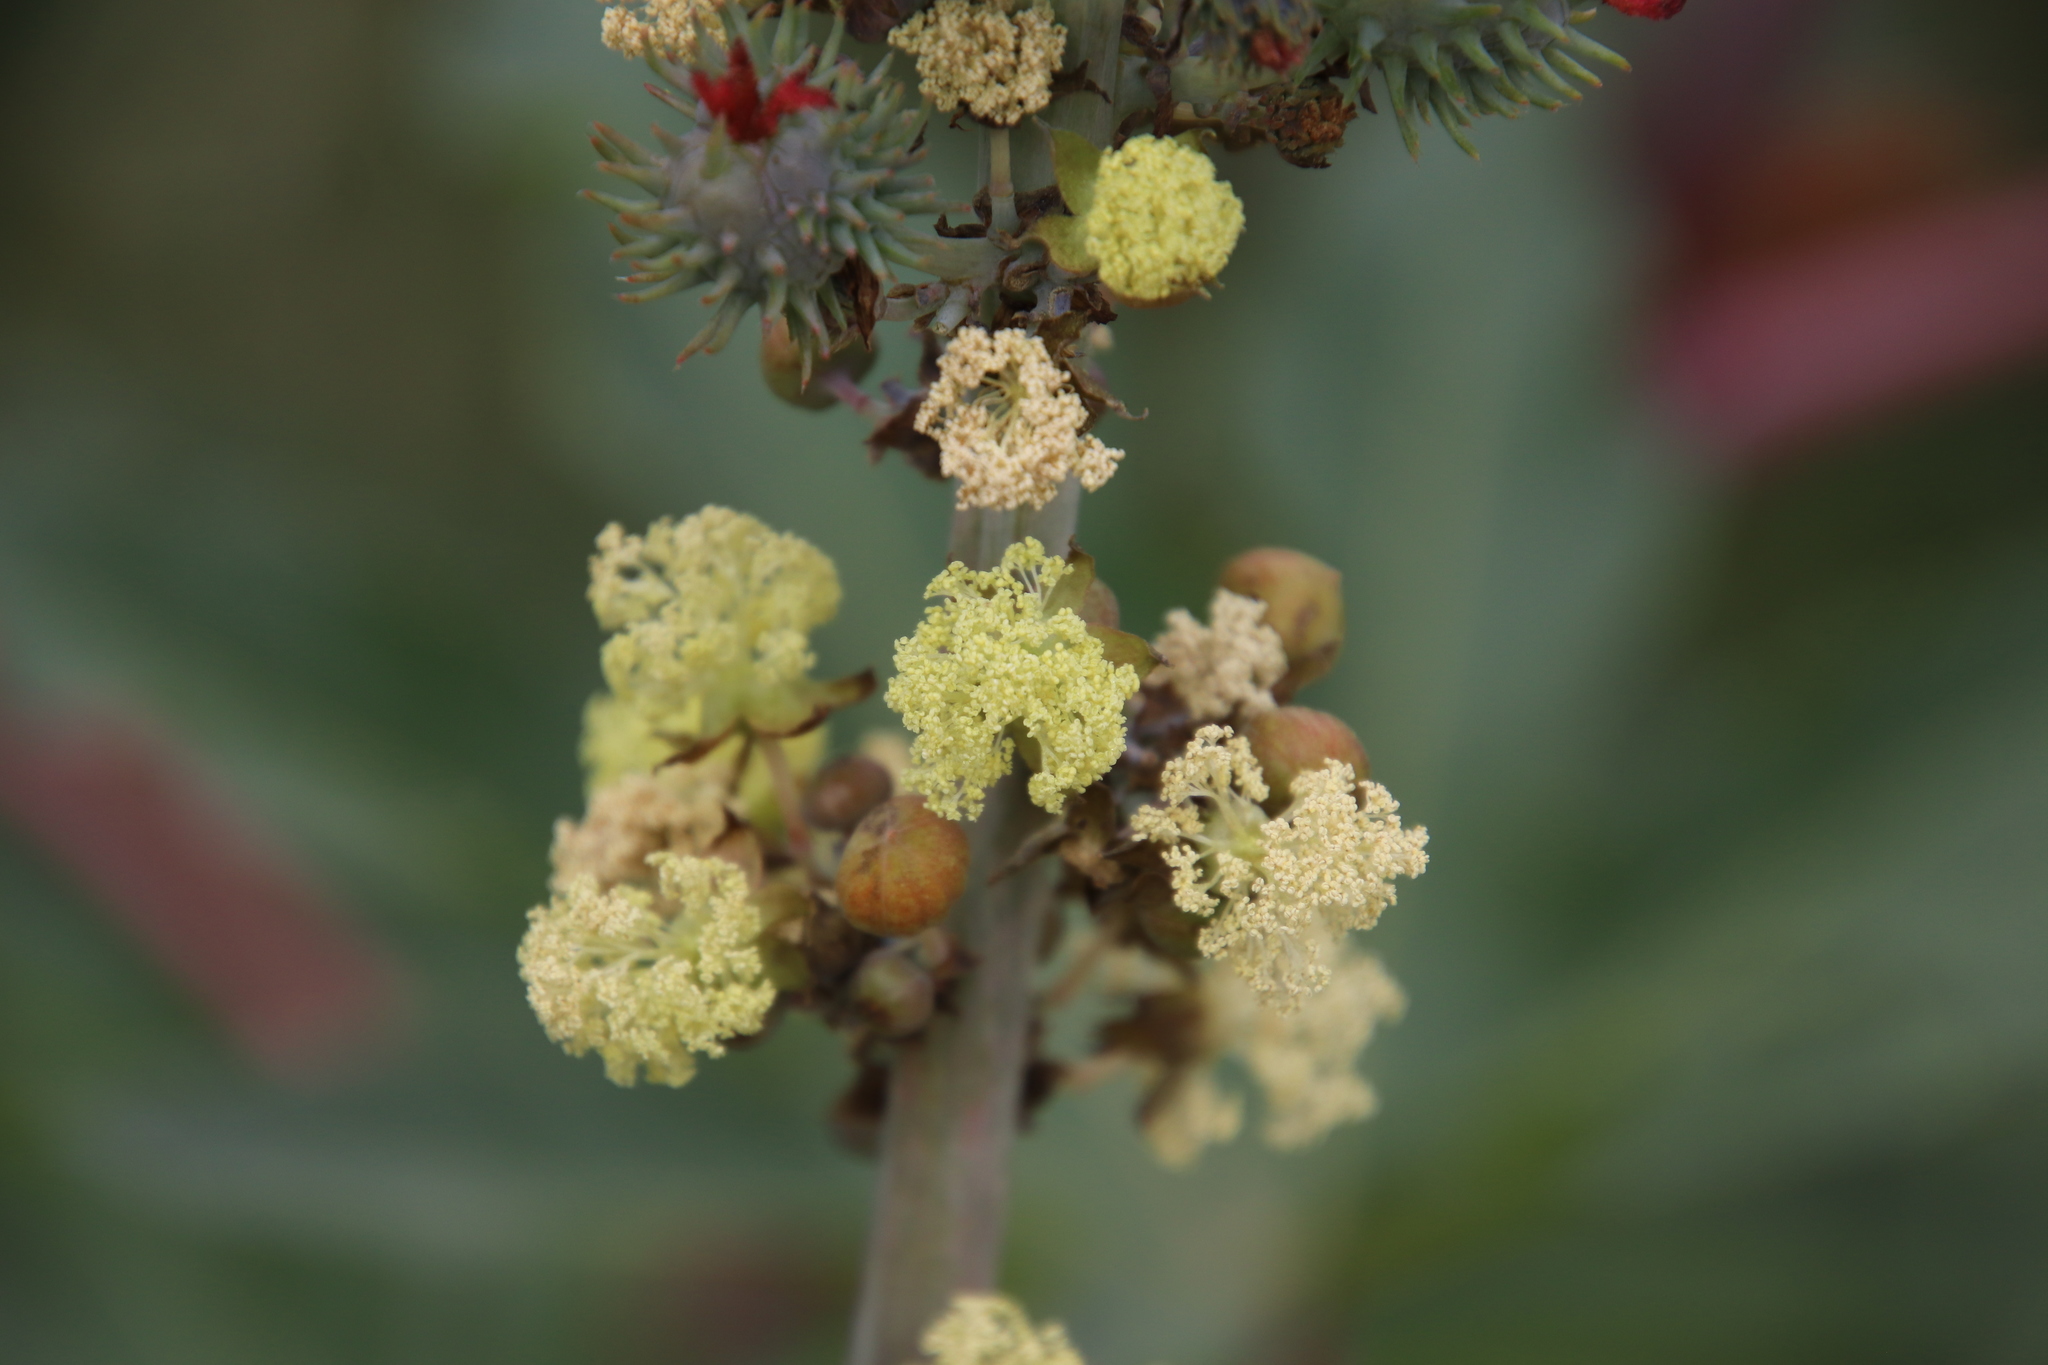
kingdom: Plantae
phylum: Tracheophyta
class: Magnoliopsida
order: Malpighiales
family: Euphorbiaceae
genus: Ricinus
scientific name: Ricinus communis
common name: Castor-oil-plant
